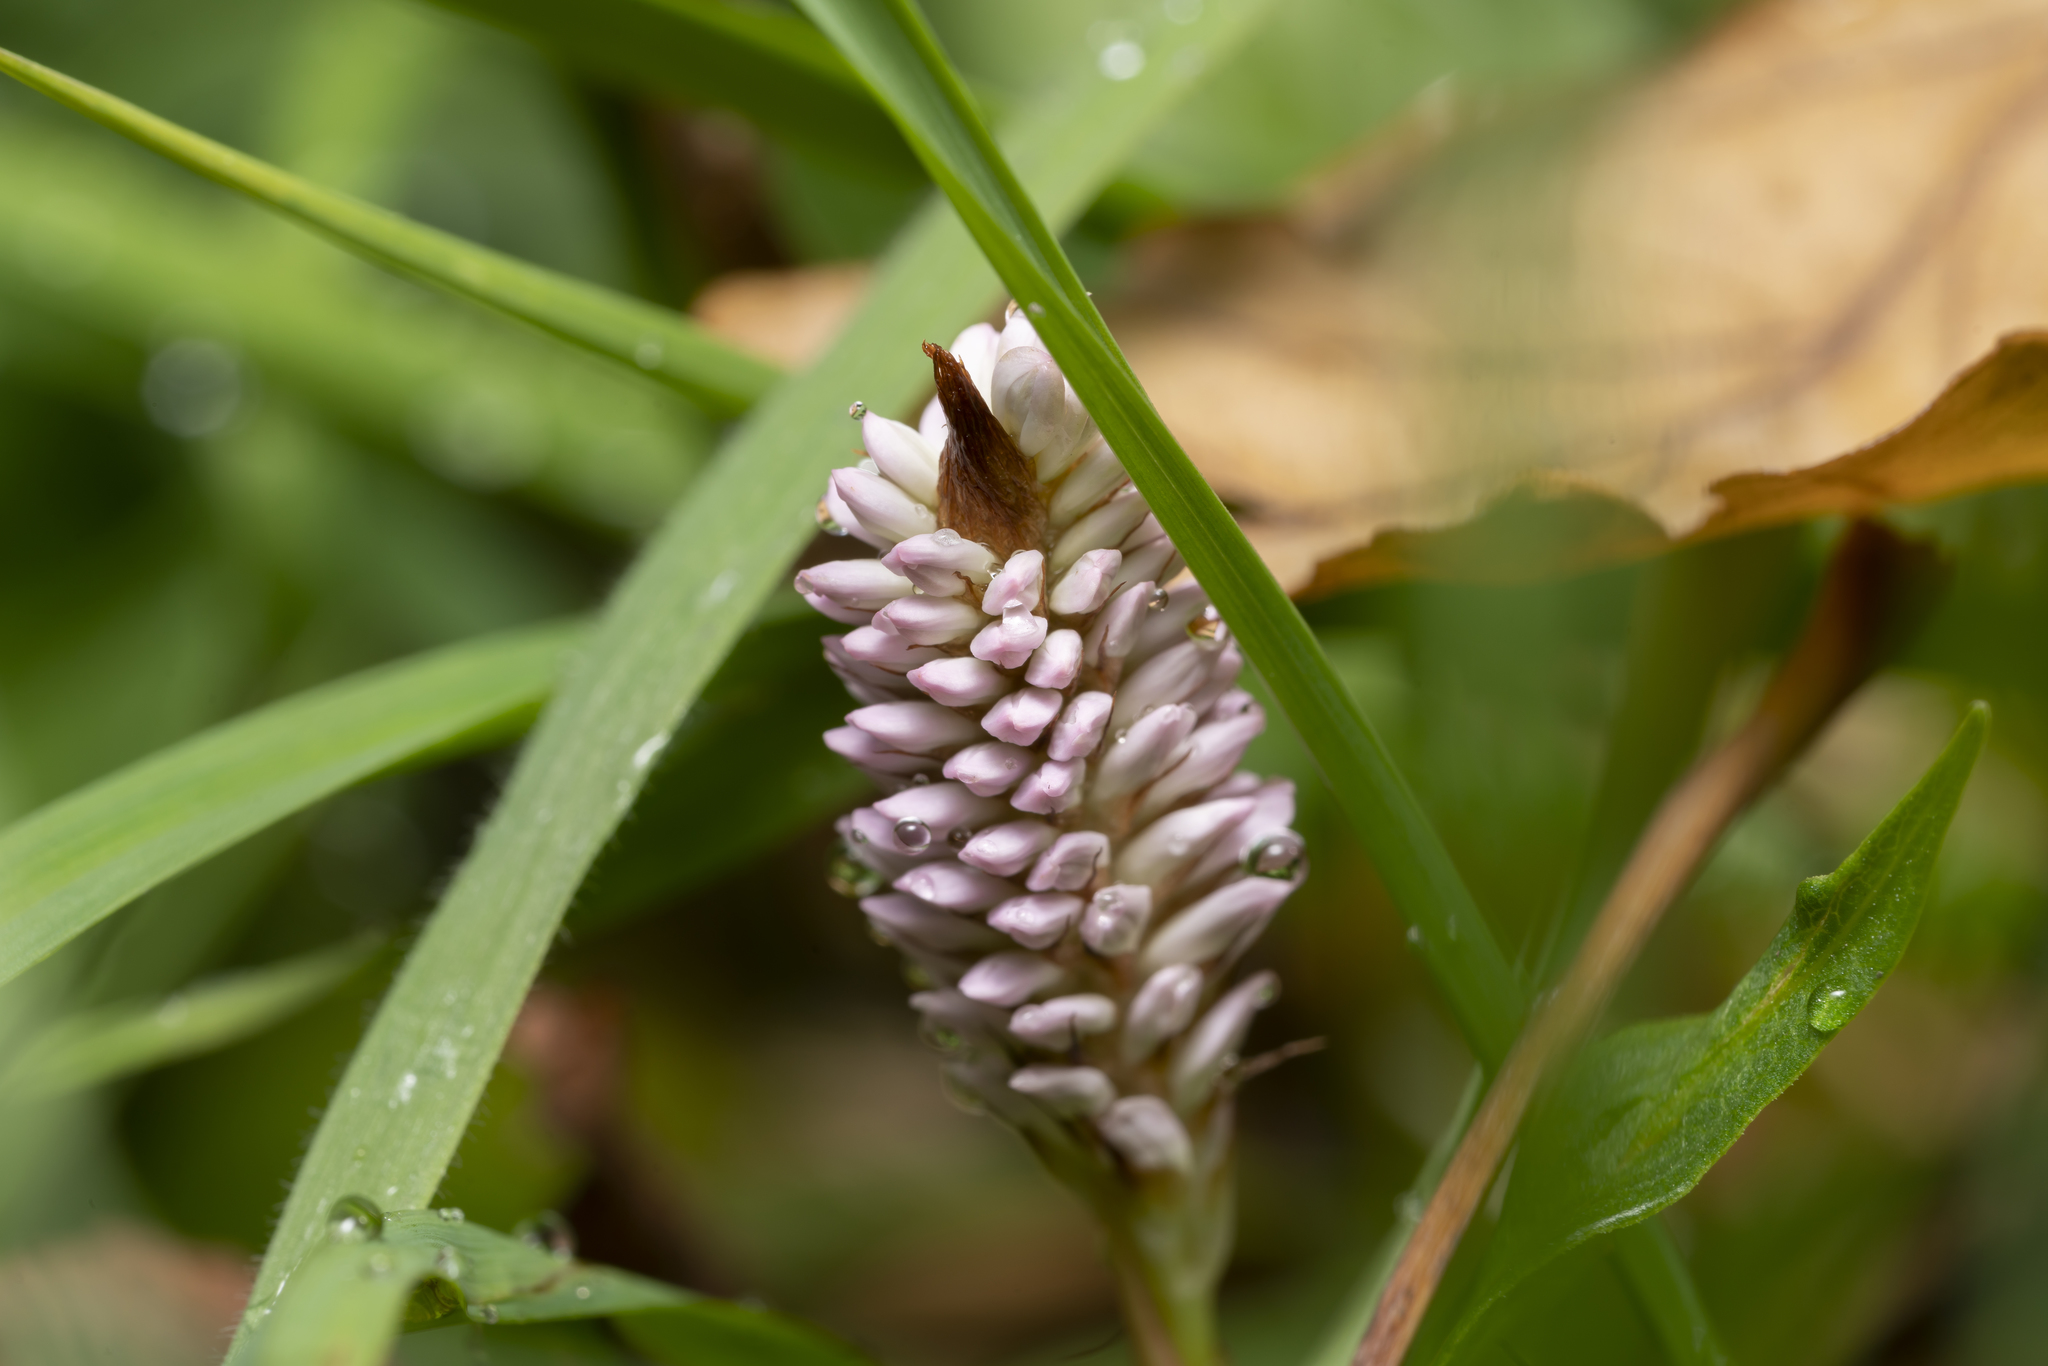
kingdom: Plantae
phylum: Tracheophyta
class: Magnoliopsida
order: Caryophyllales
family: Polygonaceae
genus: Bistorta
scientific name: Bistorta officinalis
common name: Common bistort
